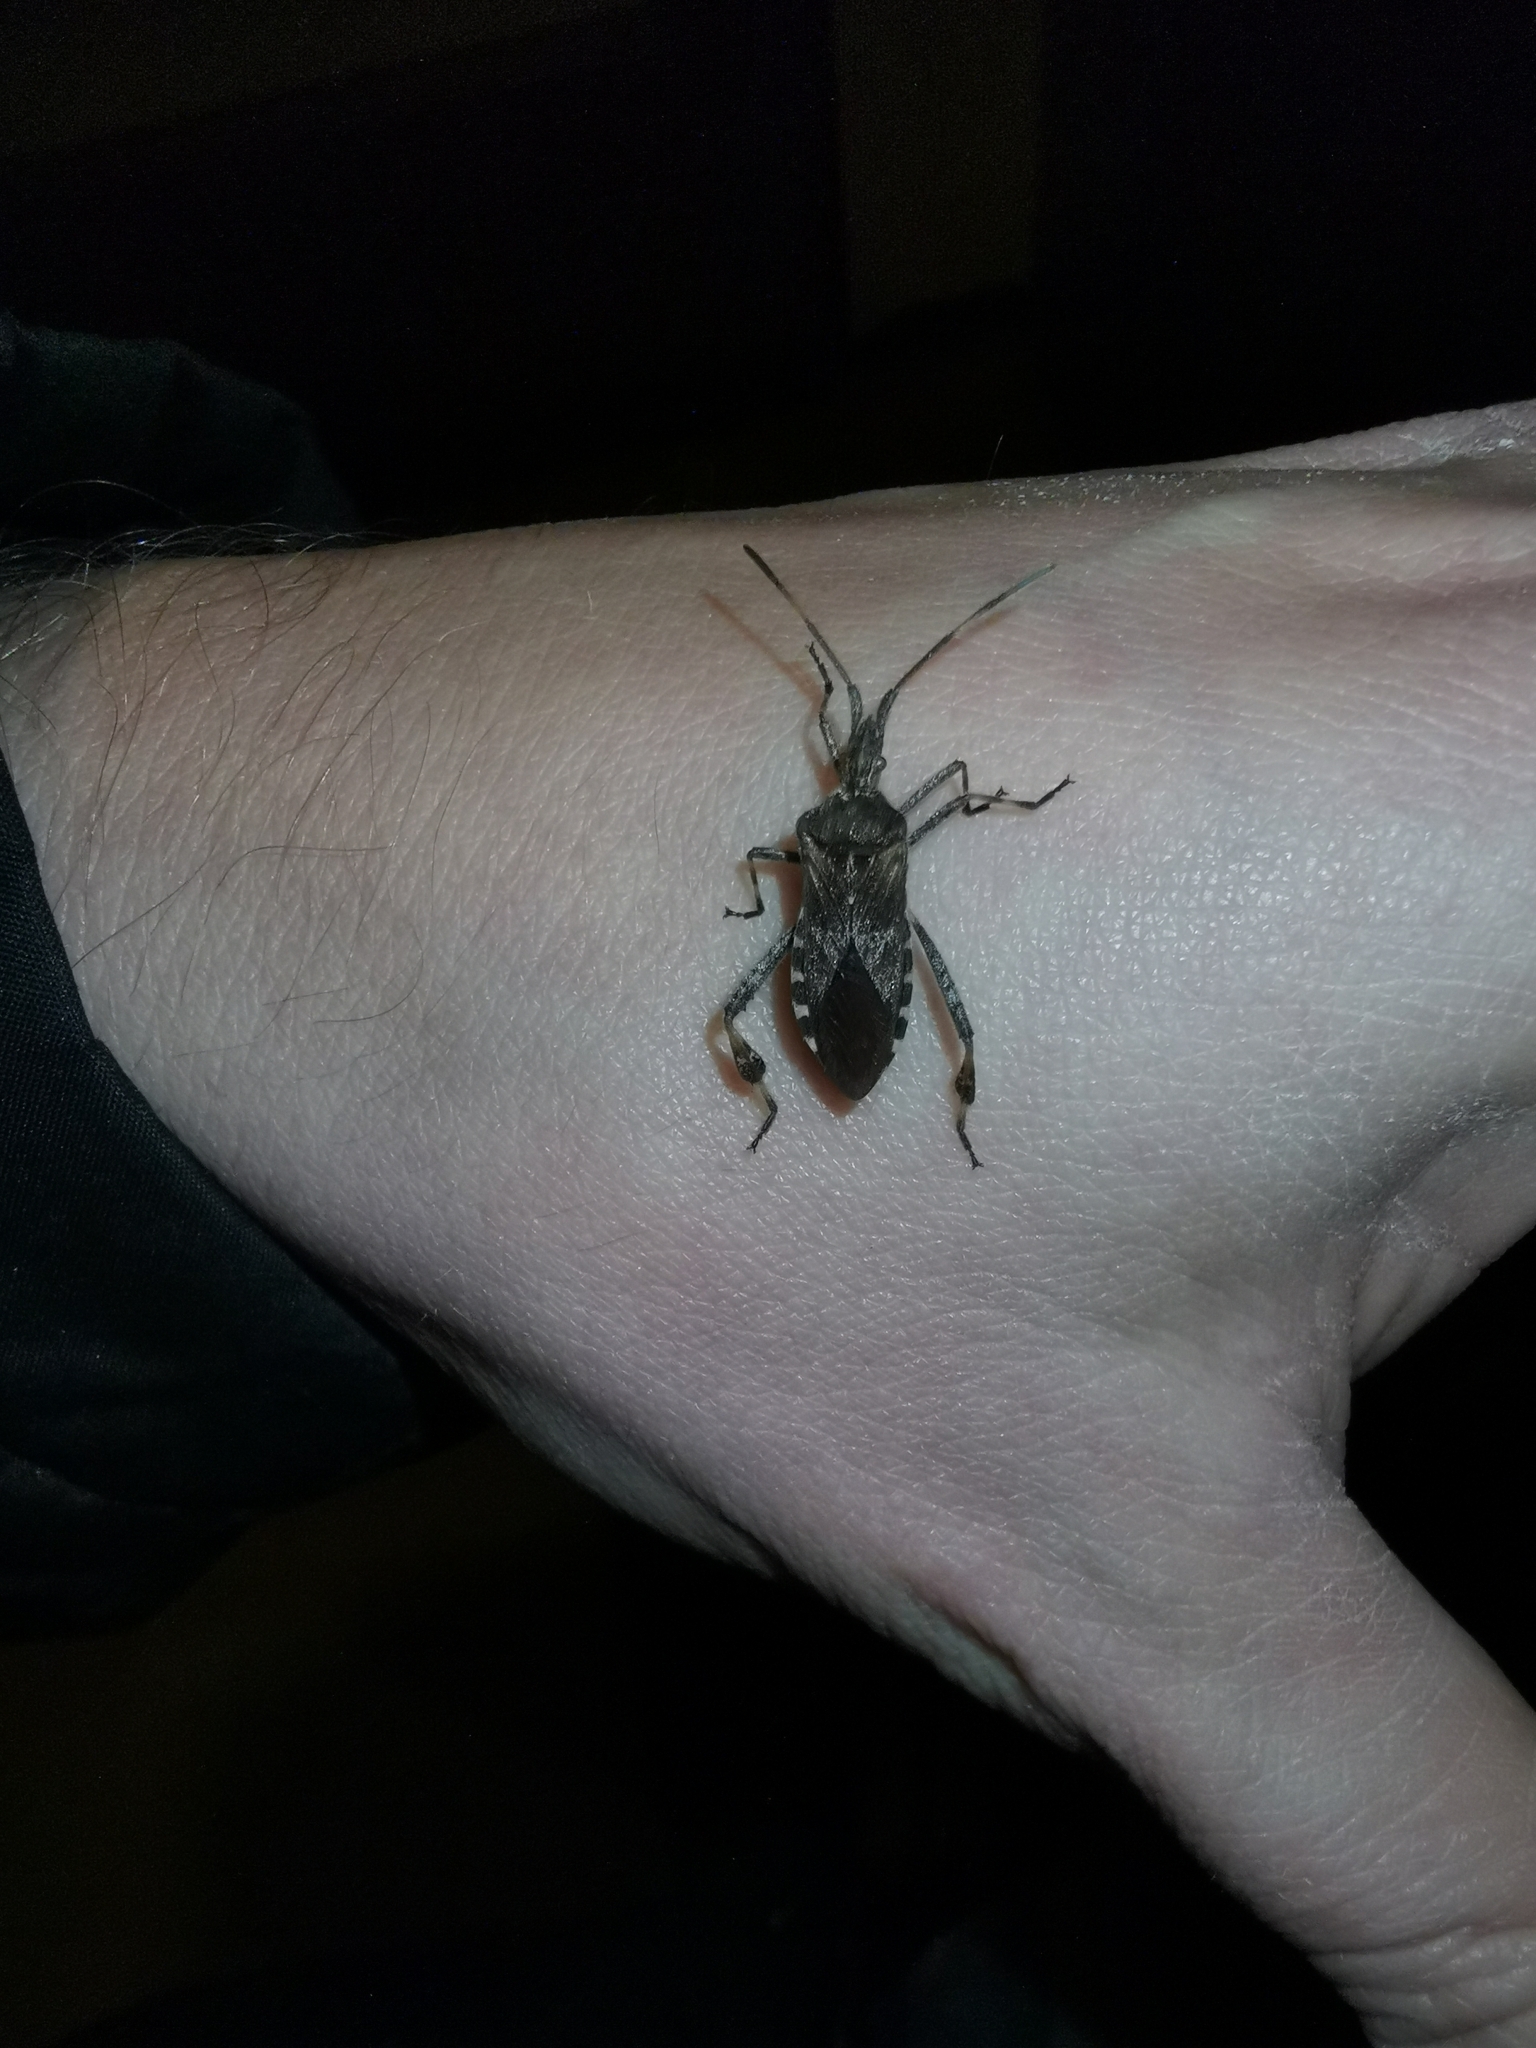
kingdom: Animalia
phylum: Arthropoda
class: Insecta
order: Hemiptera
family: Coreidae
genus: Leptoglossus
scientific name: Leptoglossus occidentalis
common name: Western conifer-seed bug
